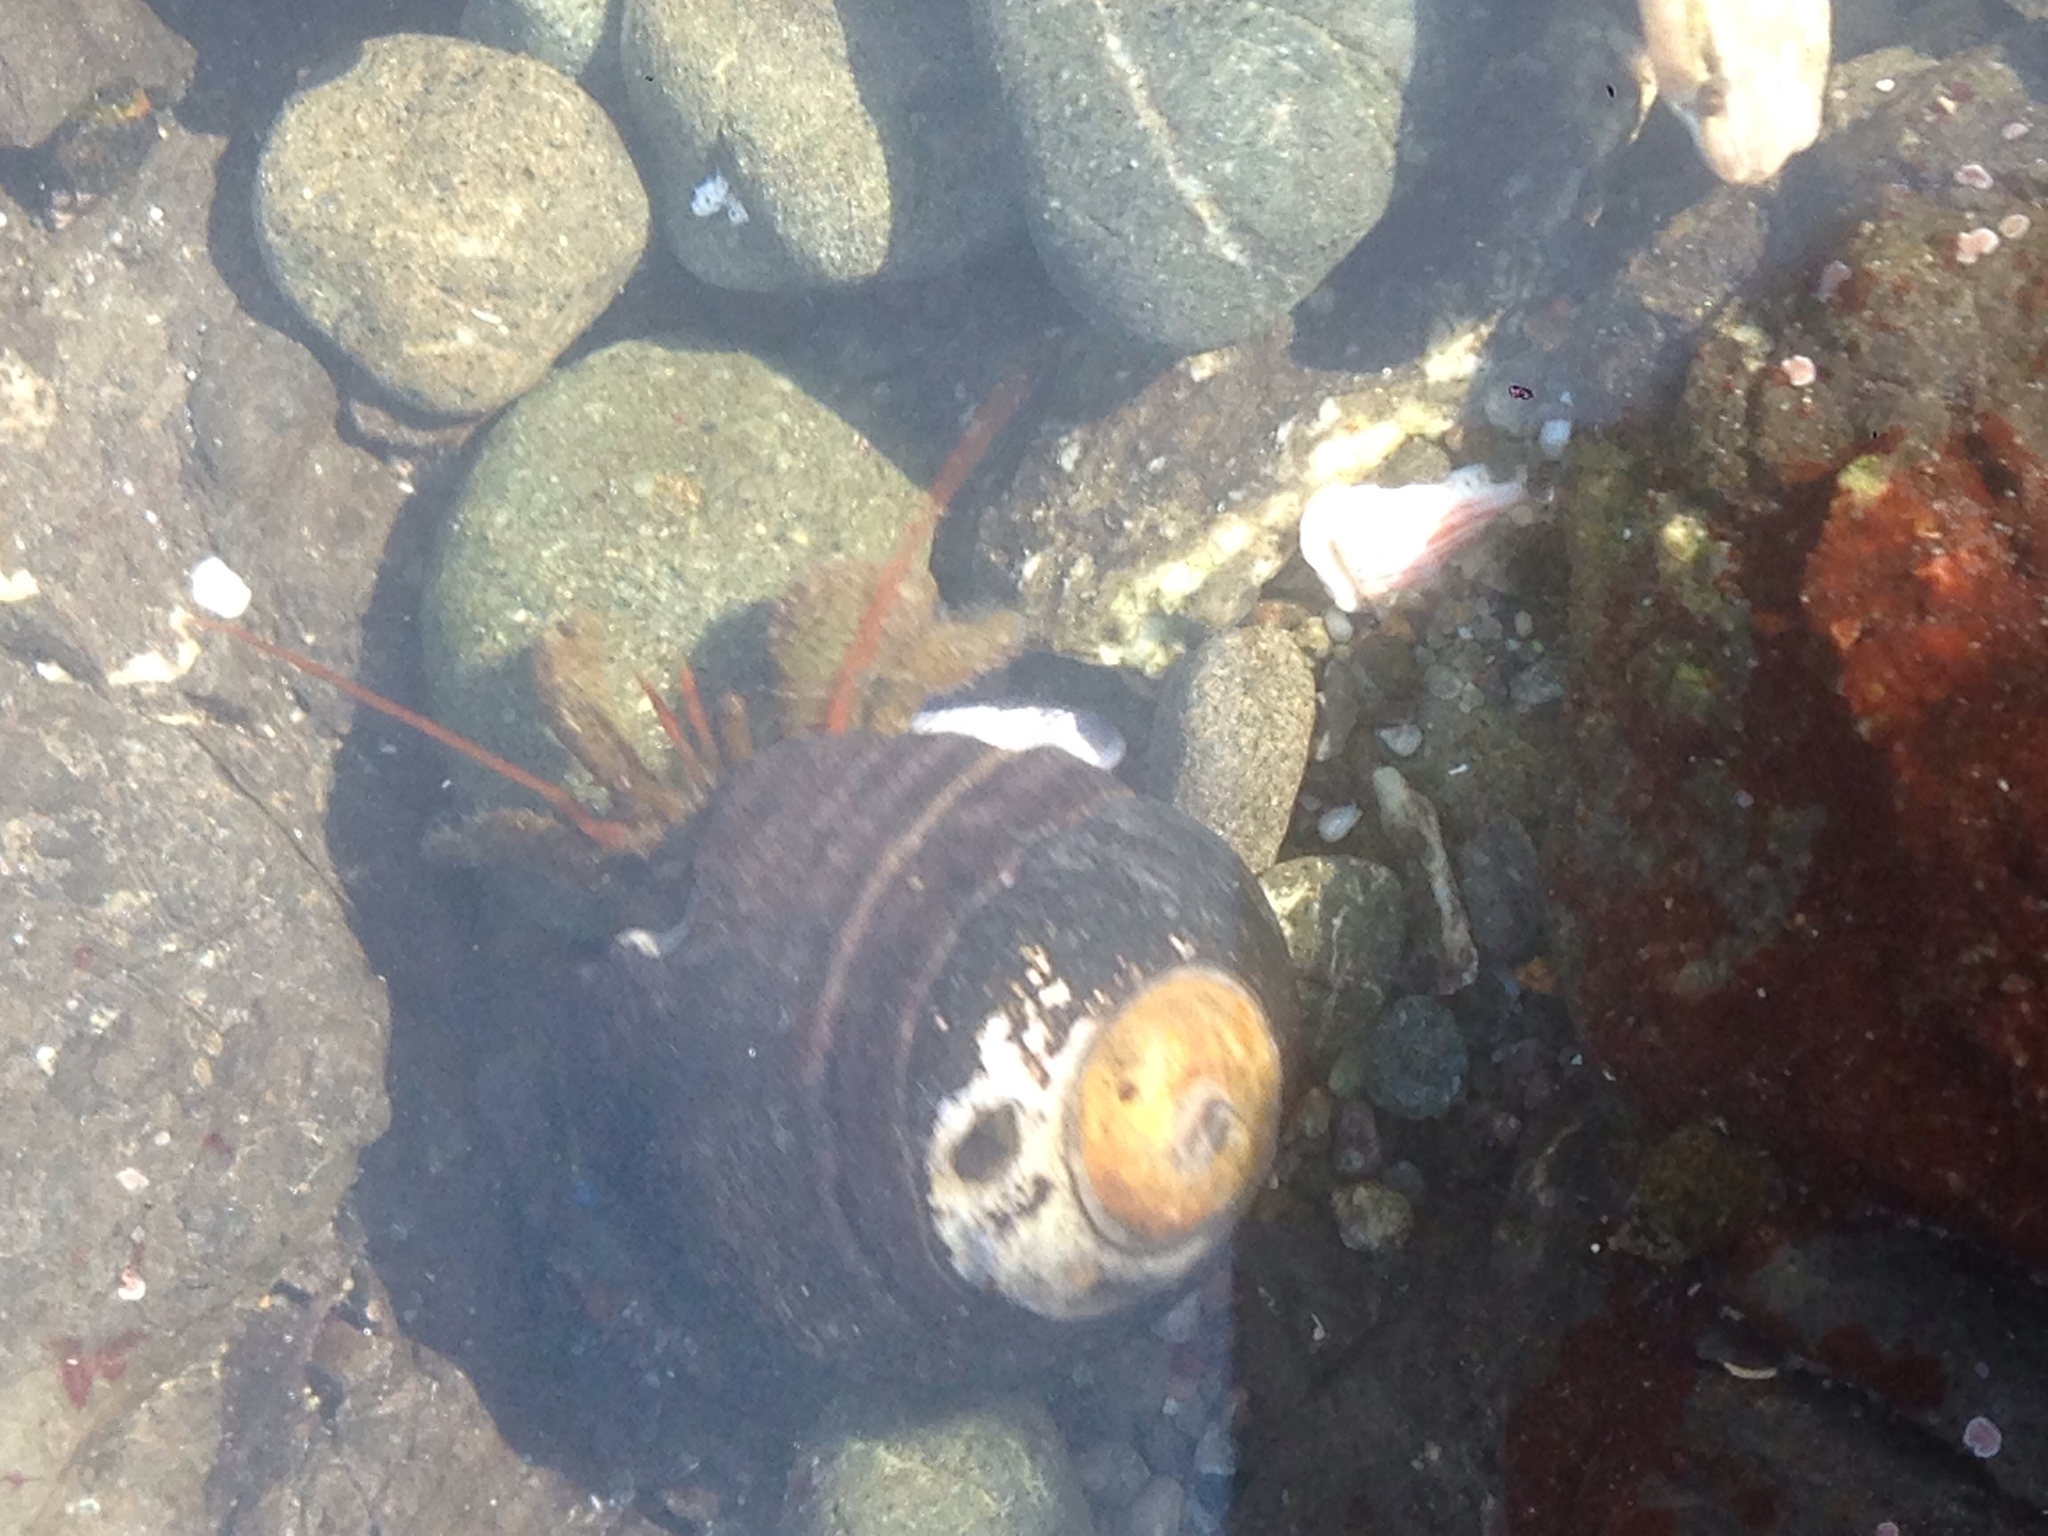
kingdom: Animalia
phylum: Arthropoda
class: Malacostraca
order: Decapoda
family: Paguridae
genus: Pagurus
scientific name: Pagurus samuelis
